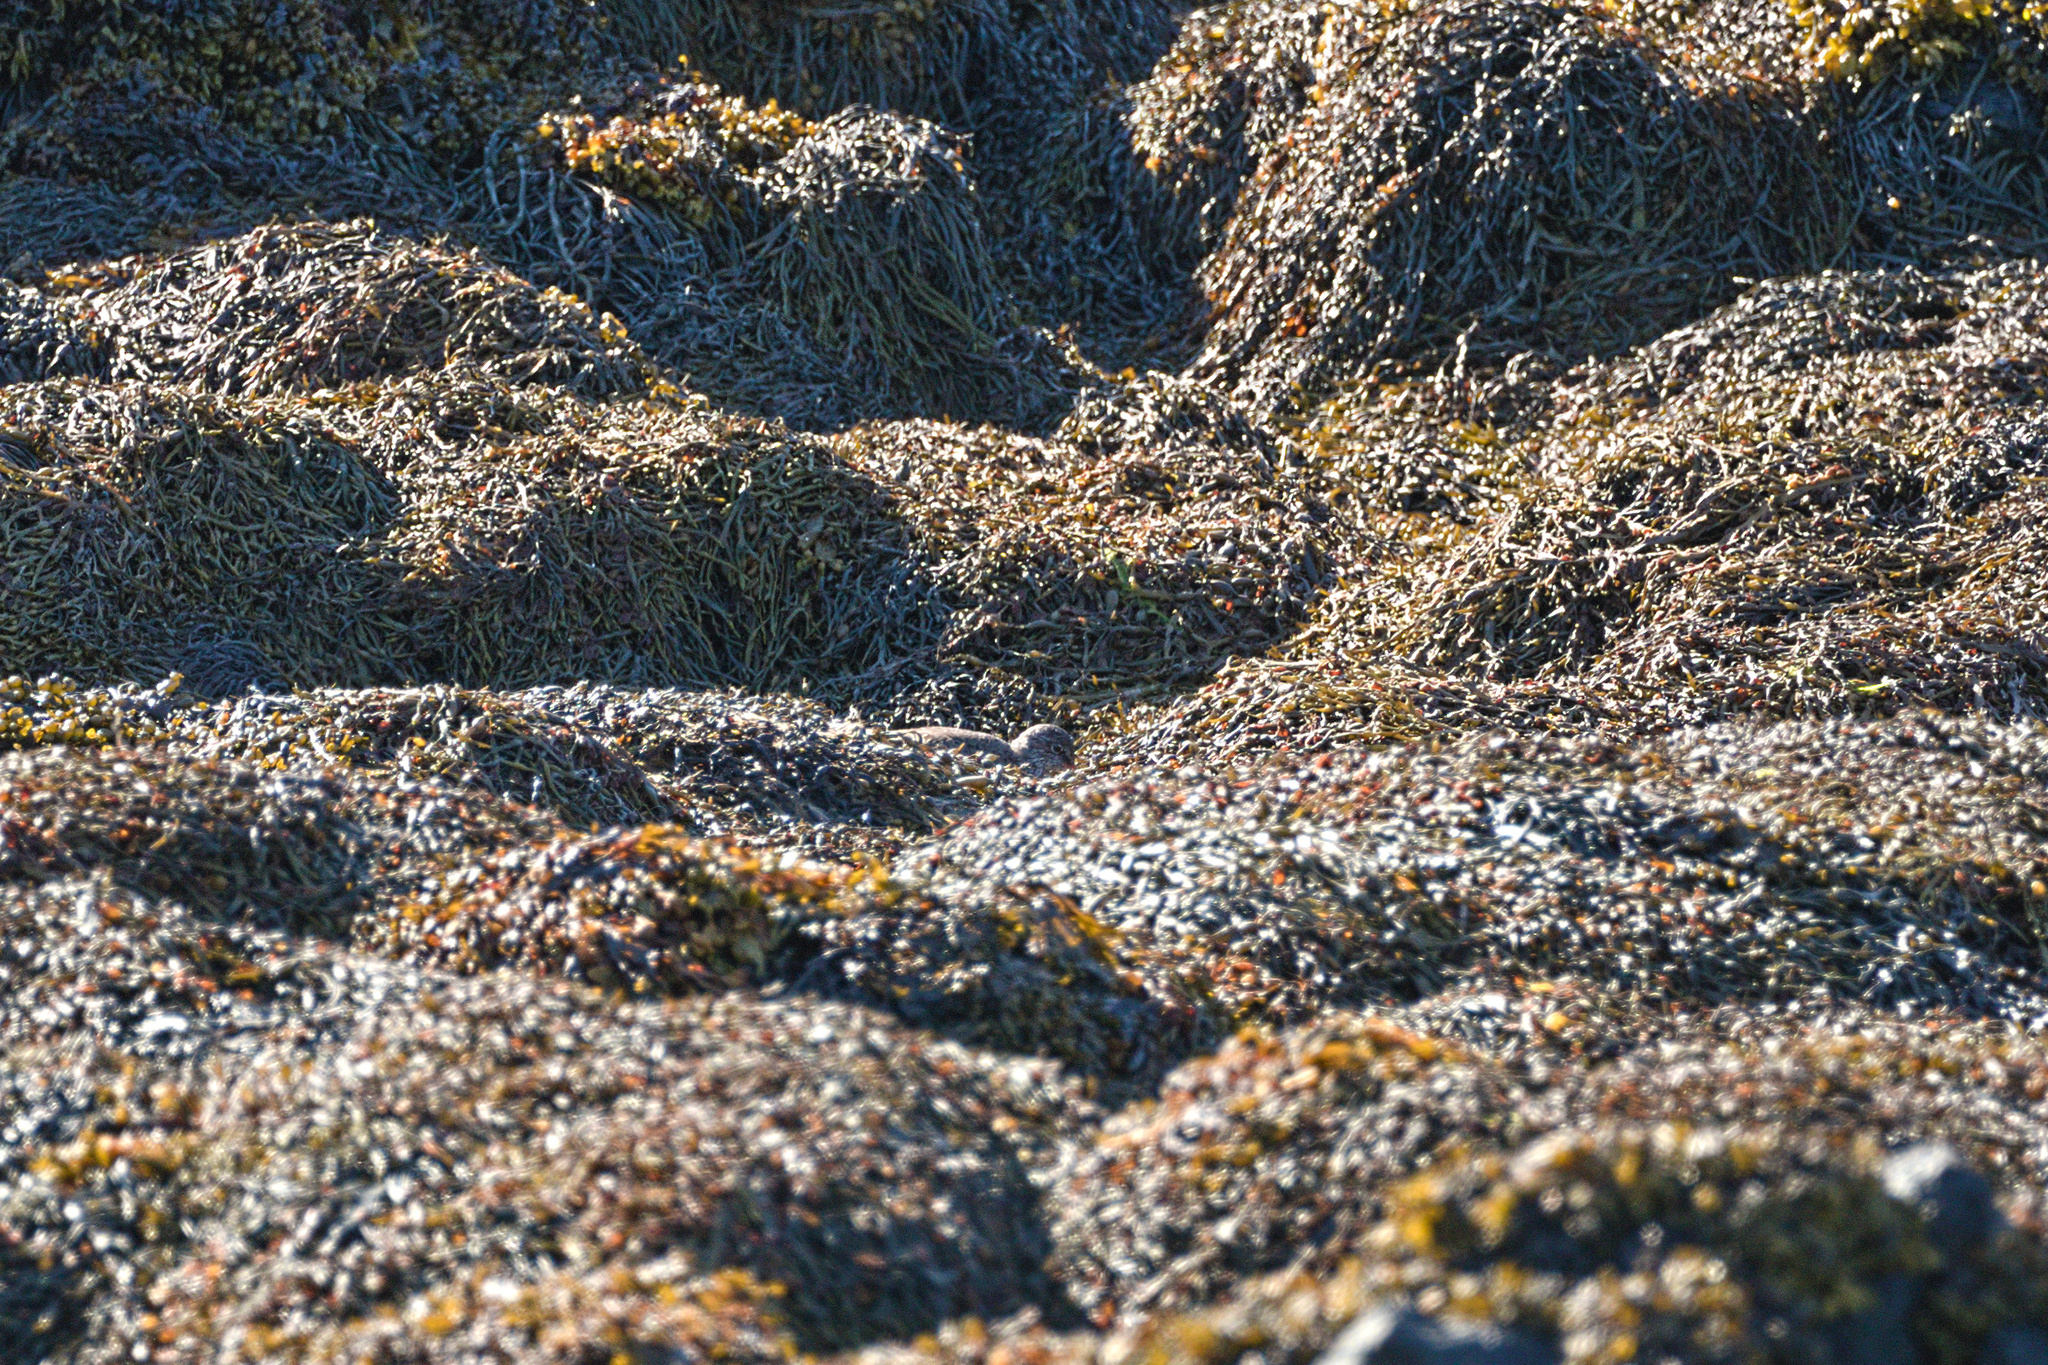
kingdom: Animalia
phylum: Chordata
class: Aves
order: Charadriiformes
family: Scolopacidae
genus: Tringa
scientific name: Tringa totanus
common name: Common redshank
